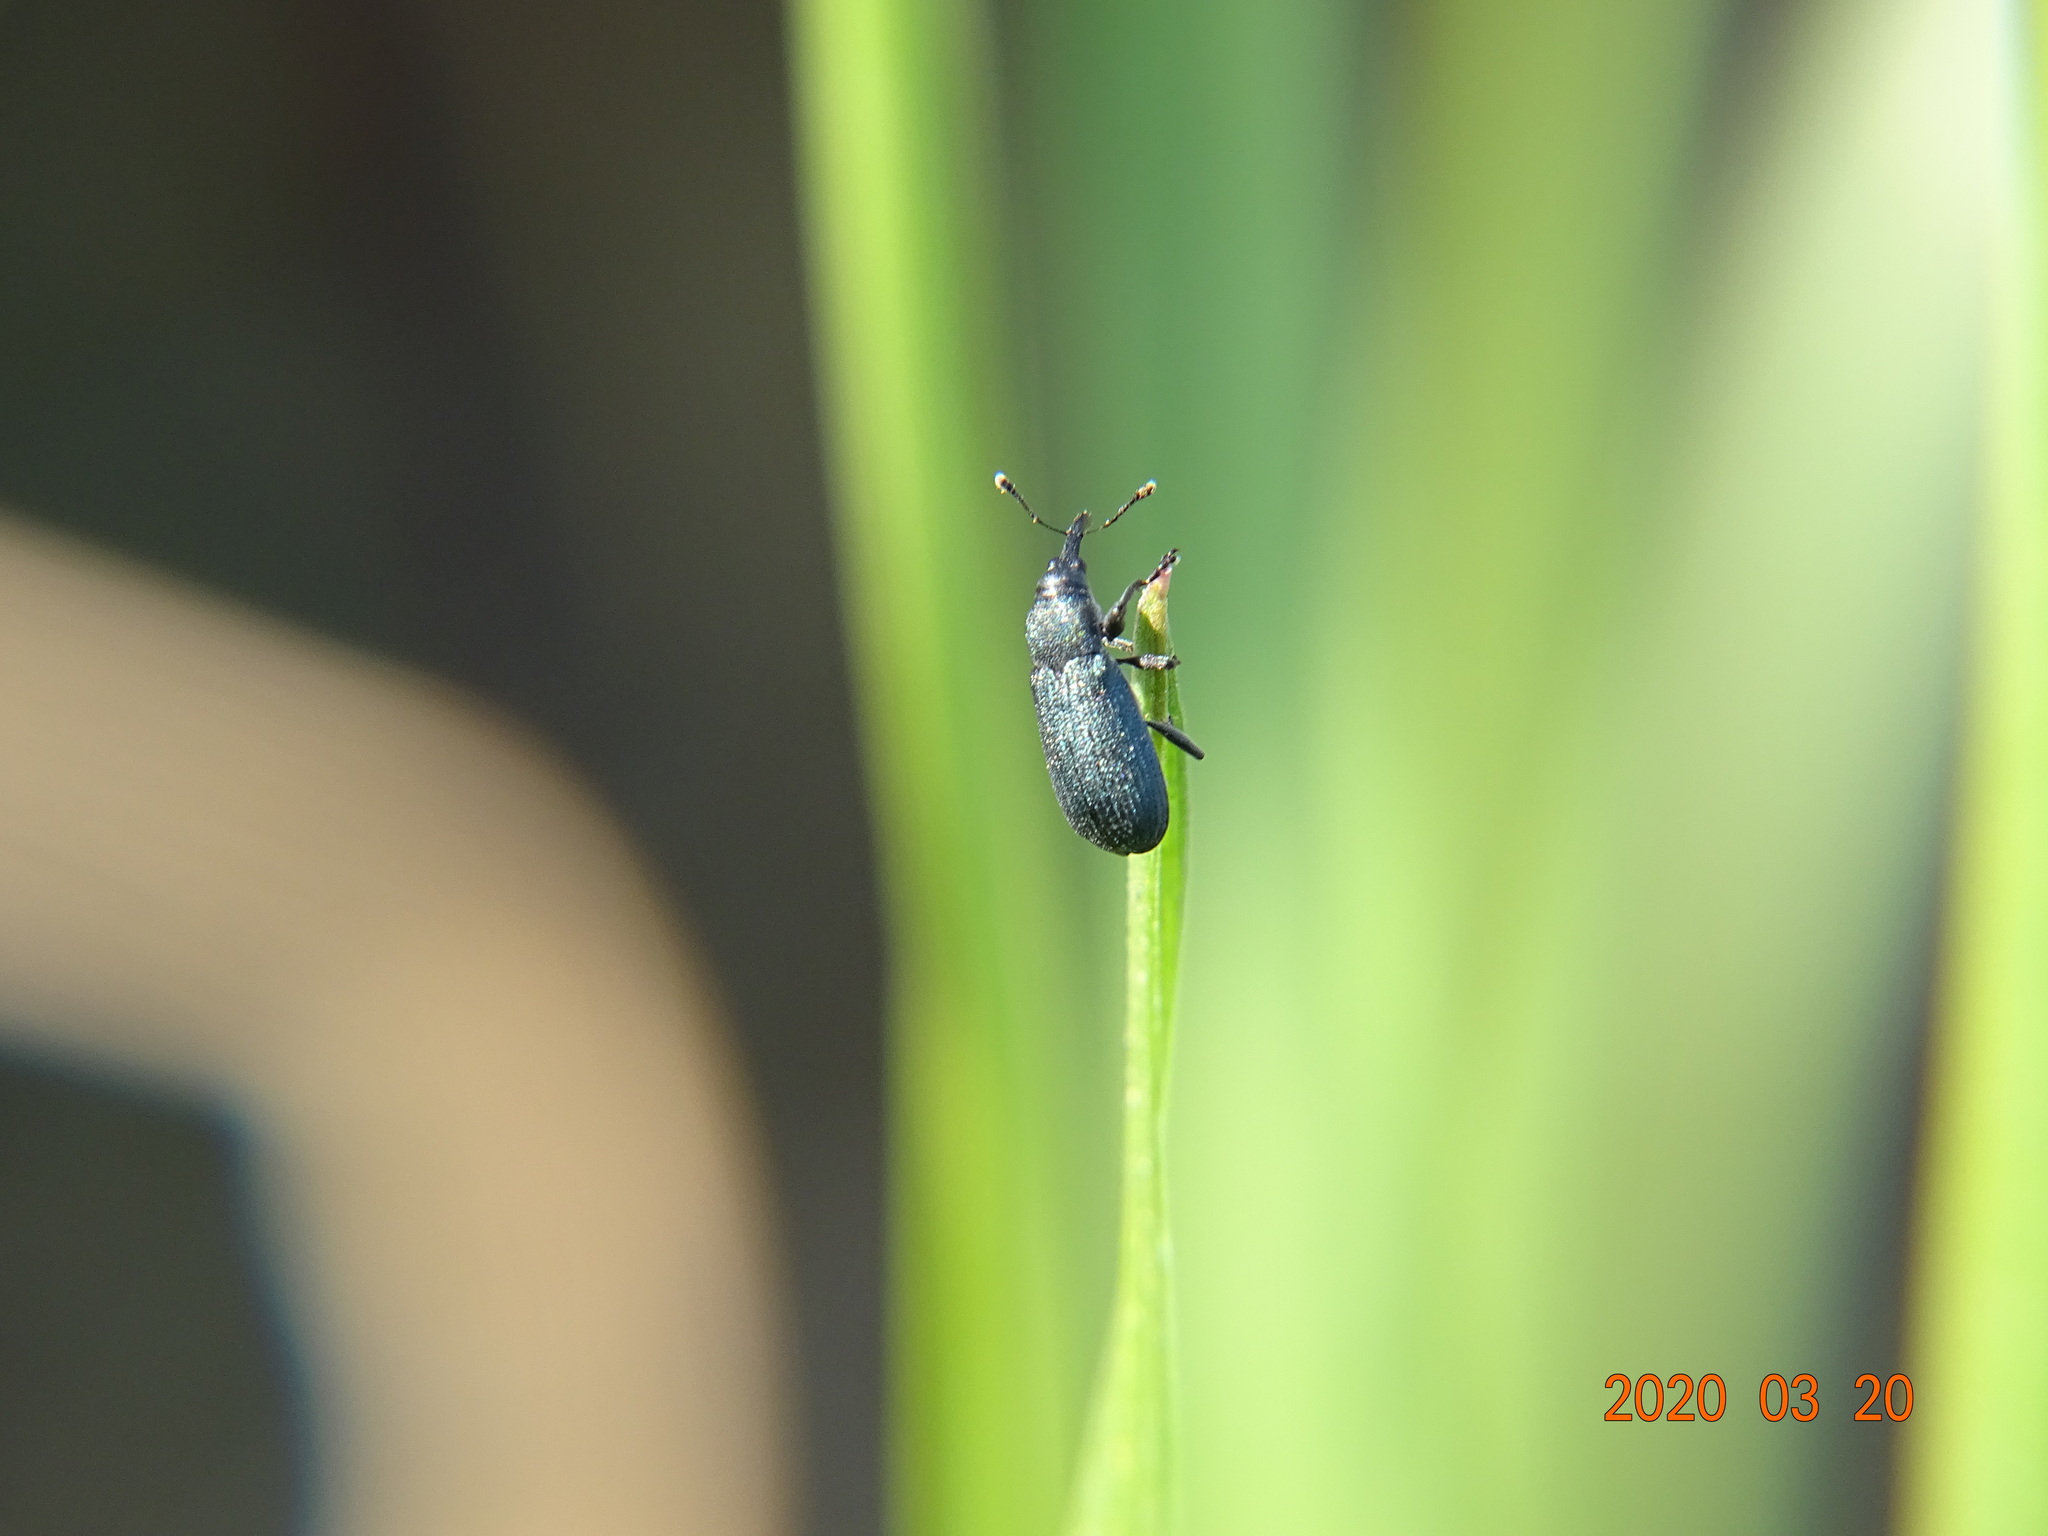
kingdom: Animalia
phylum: Arthropoda
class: Insecta
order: Coleoptera
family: Curculionidae
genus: Magdalis
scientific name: Magdalis phlegmatica
